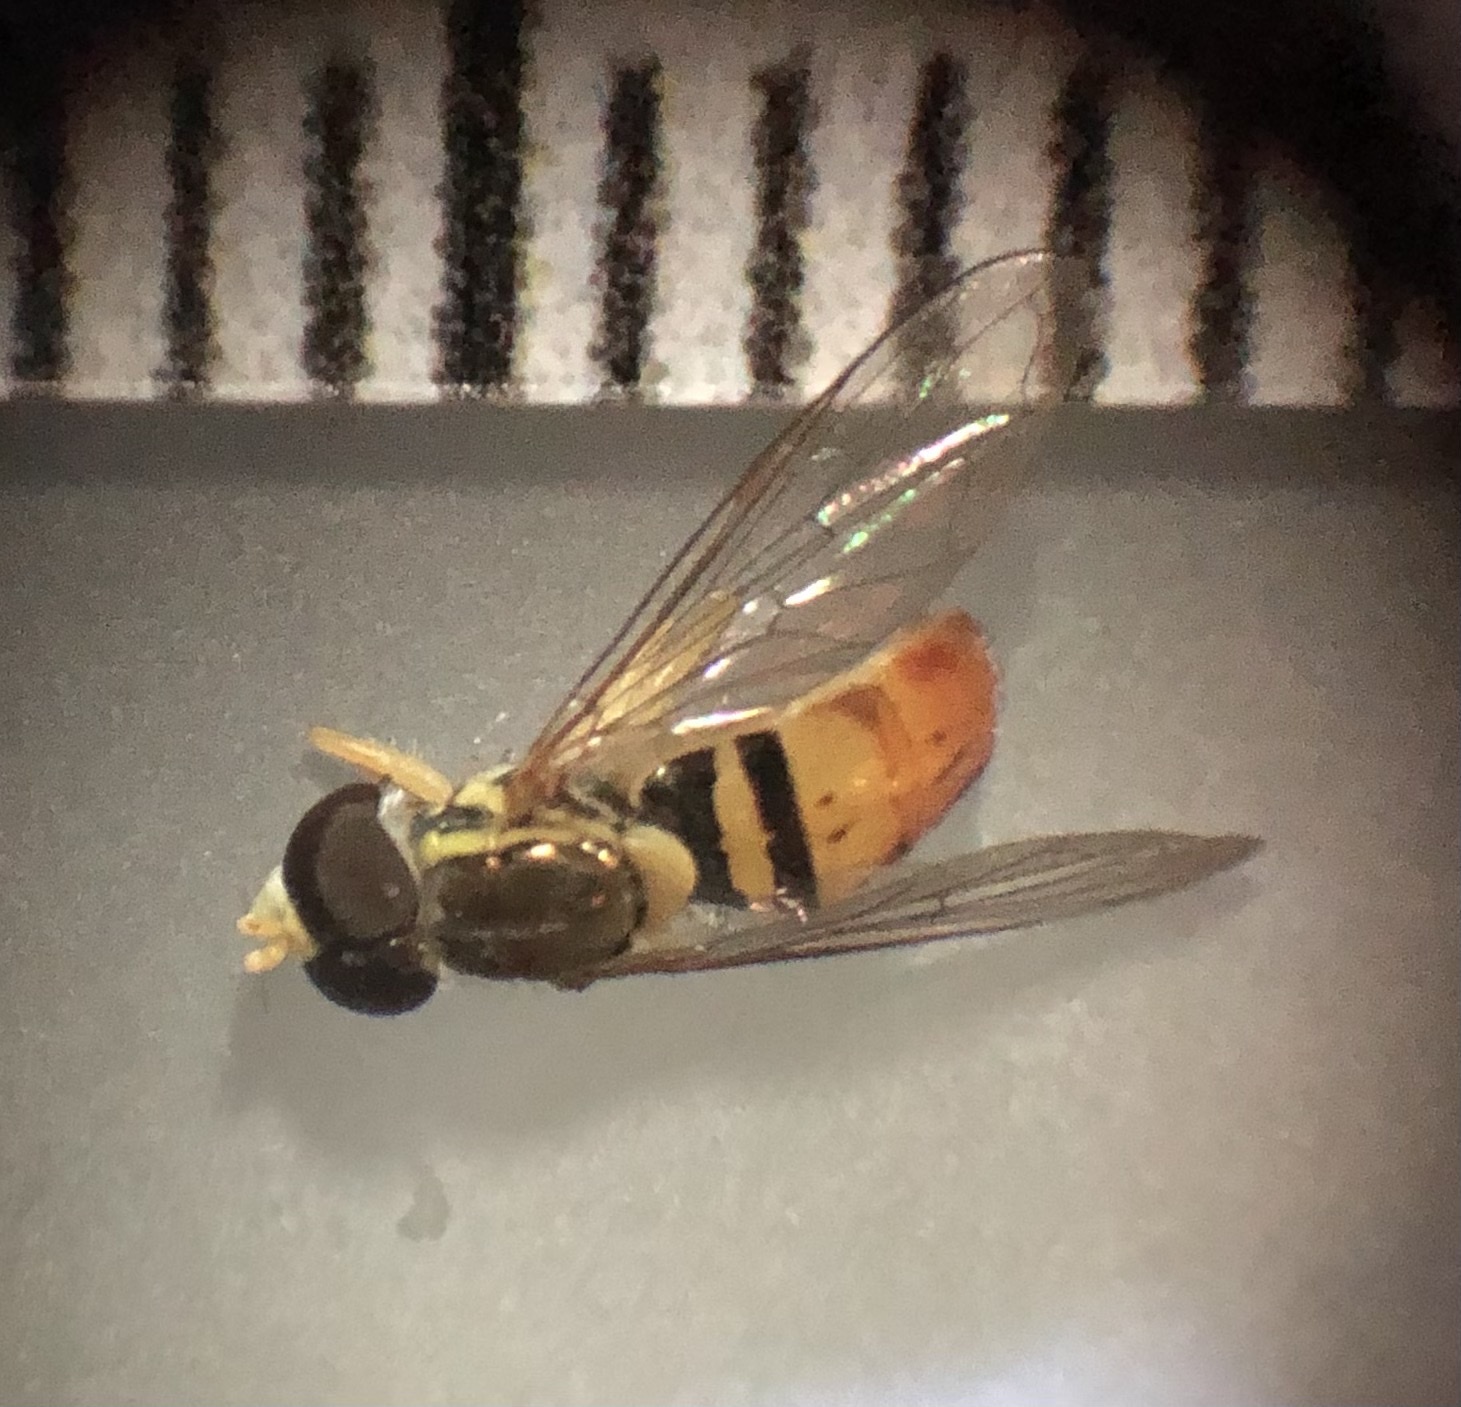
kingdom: Animalia
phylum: Arthropoda
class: Insecta
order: Diptera
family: Syrphidae
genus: Toxomerus
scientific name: Toxomerus marginatus
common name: Syrphid fly
